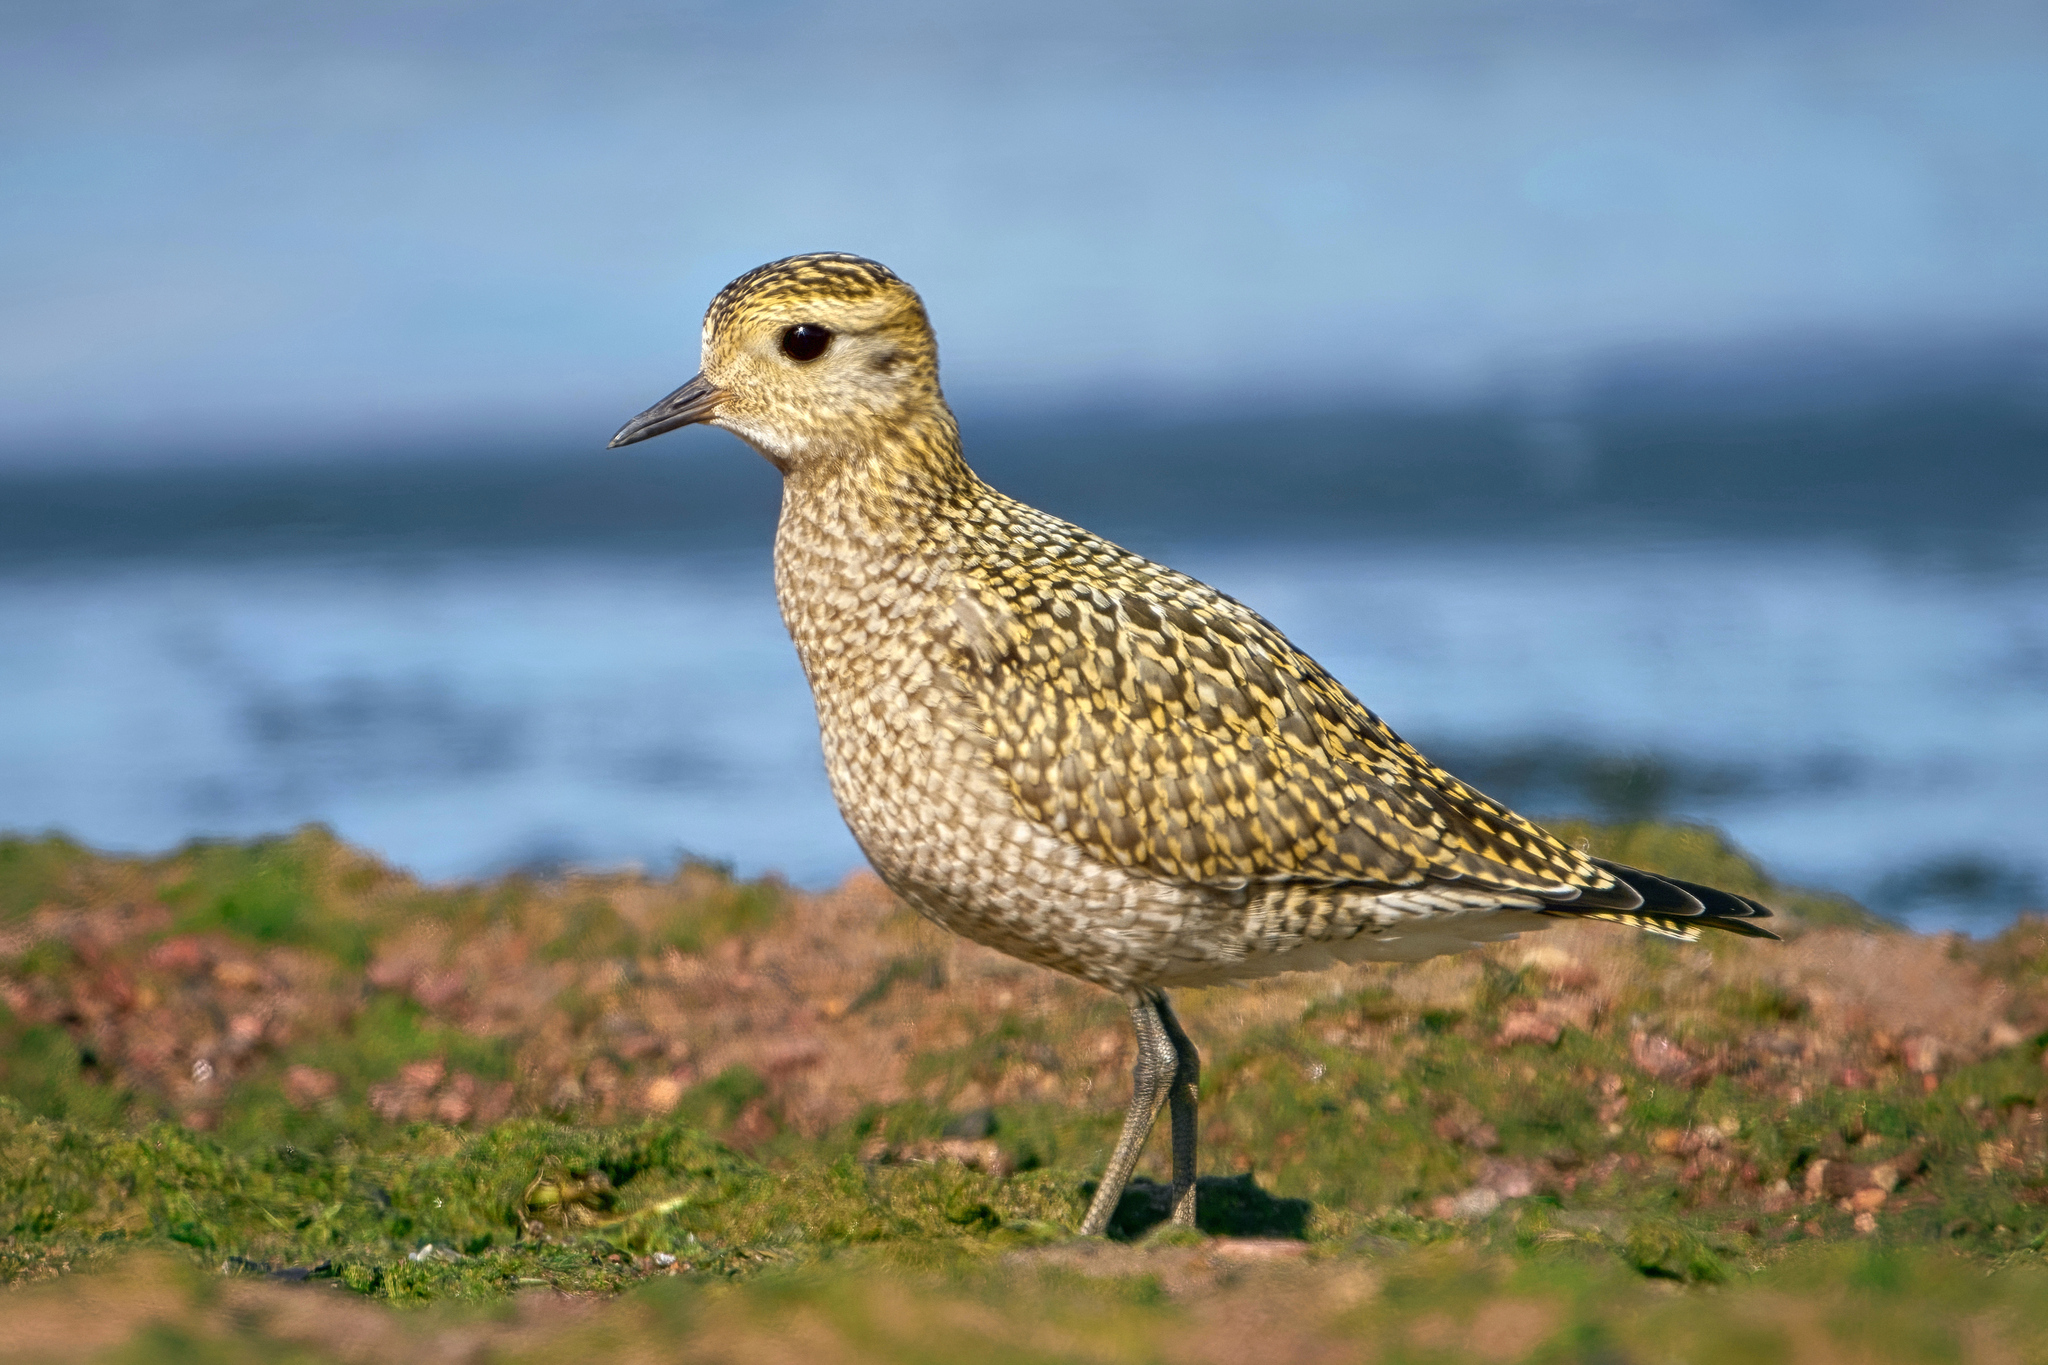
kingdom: Animalia
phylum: Chordata
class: Aves
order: Charadriiformes
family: Charadriidae
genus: Pluvialis
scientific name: Pluvialis apricaria
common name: European golden plover
